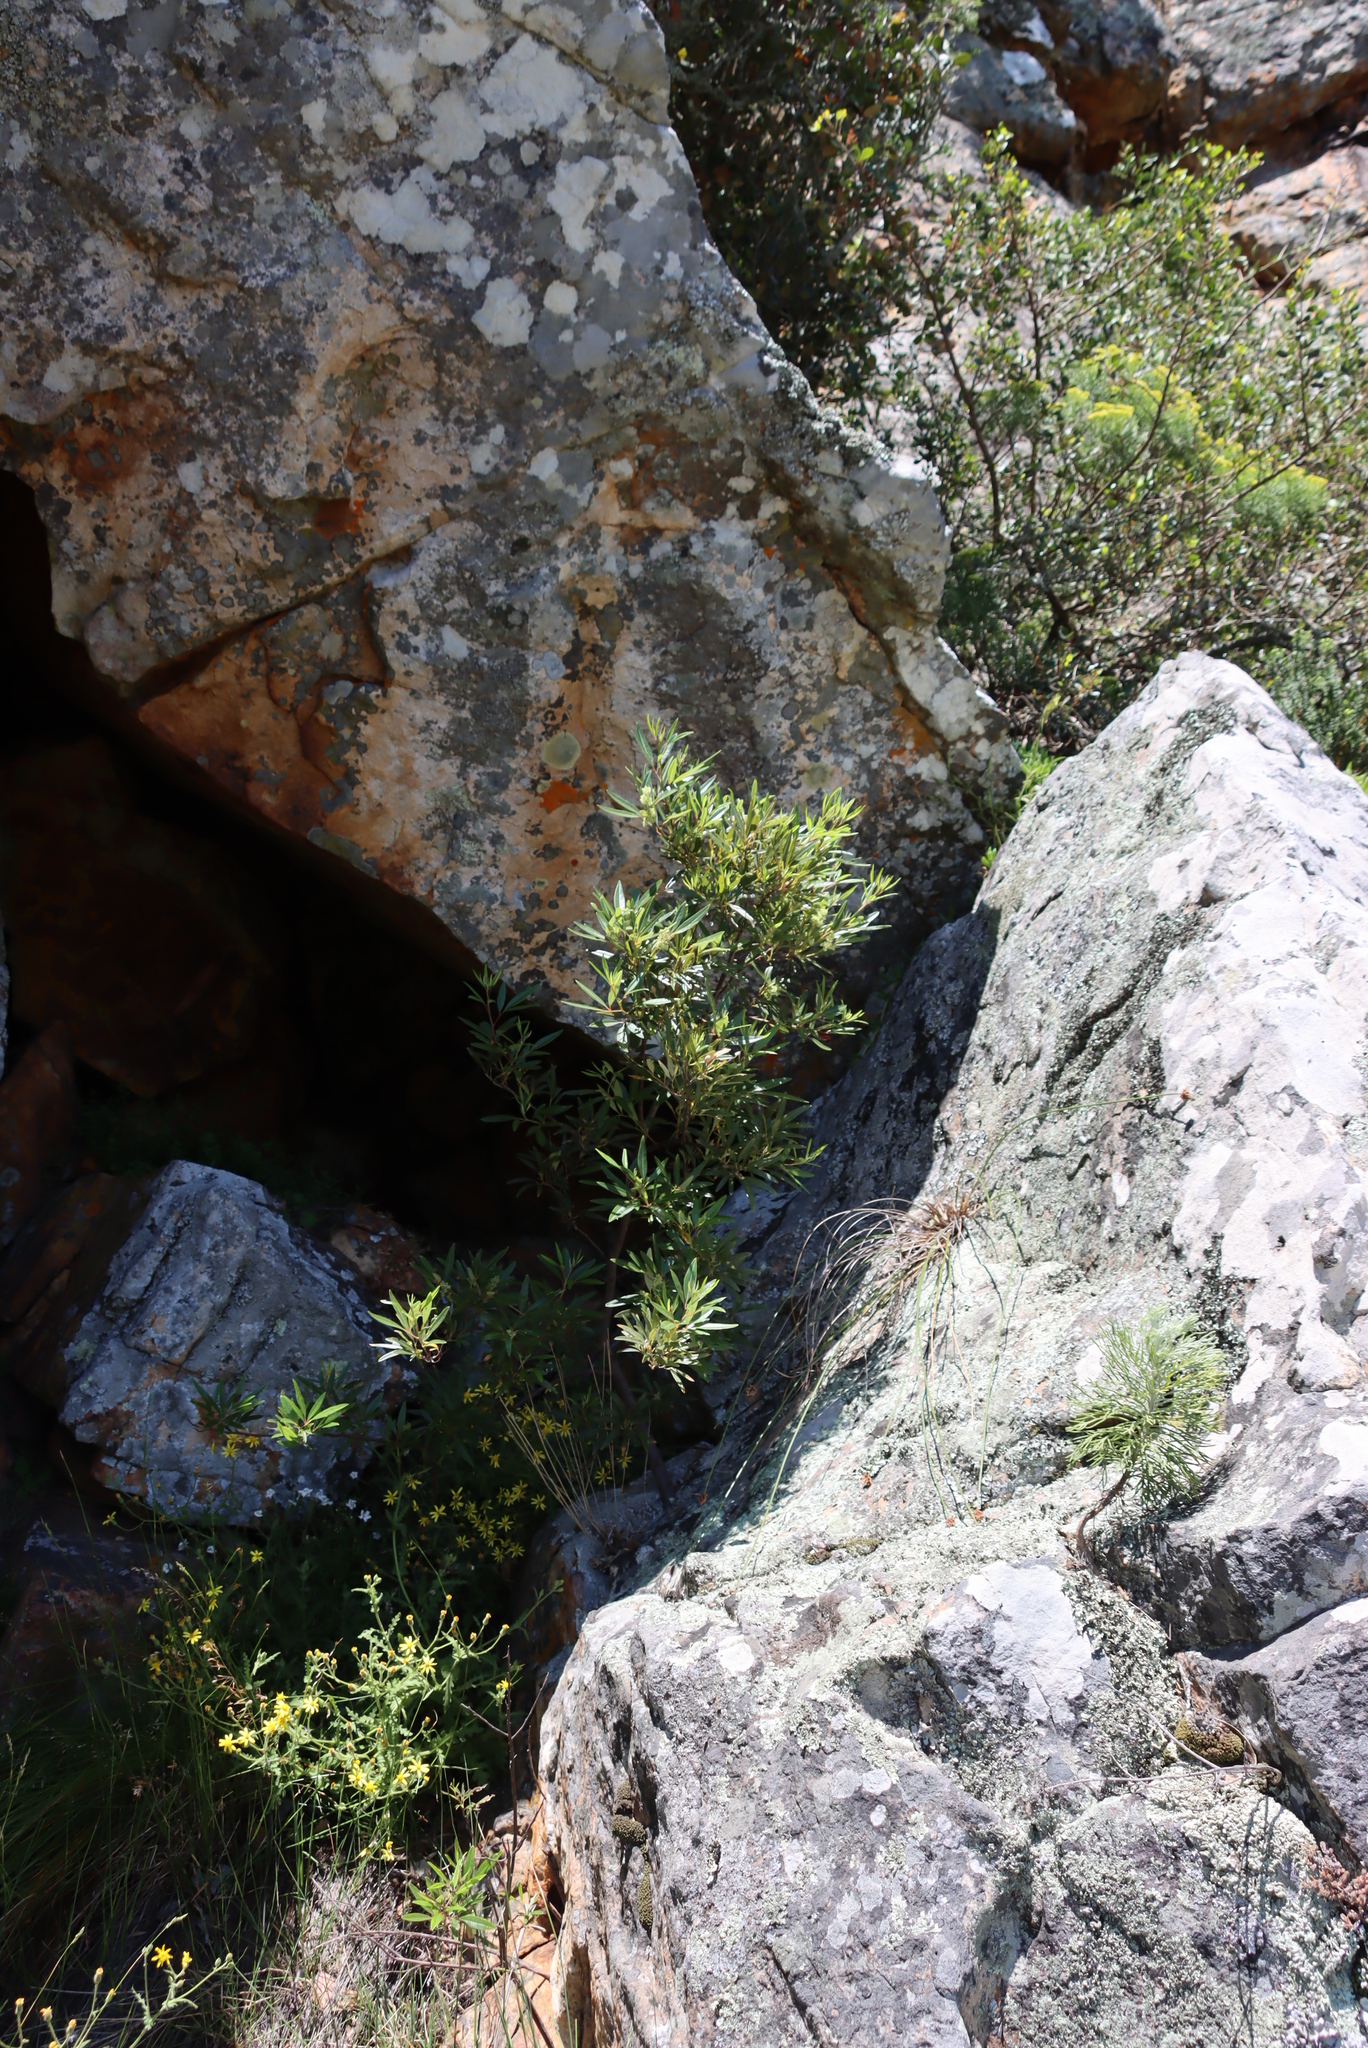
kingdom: Plantae
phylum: Tracheophyta
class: Magnoliopsida
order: Sapindales
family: Anacardiaceae
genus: Searsia
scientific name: Searsia angustifolia
